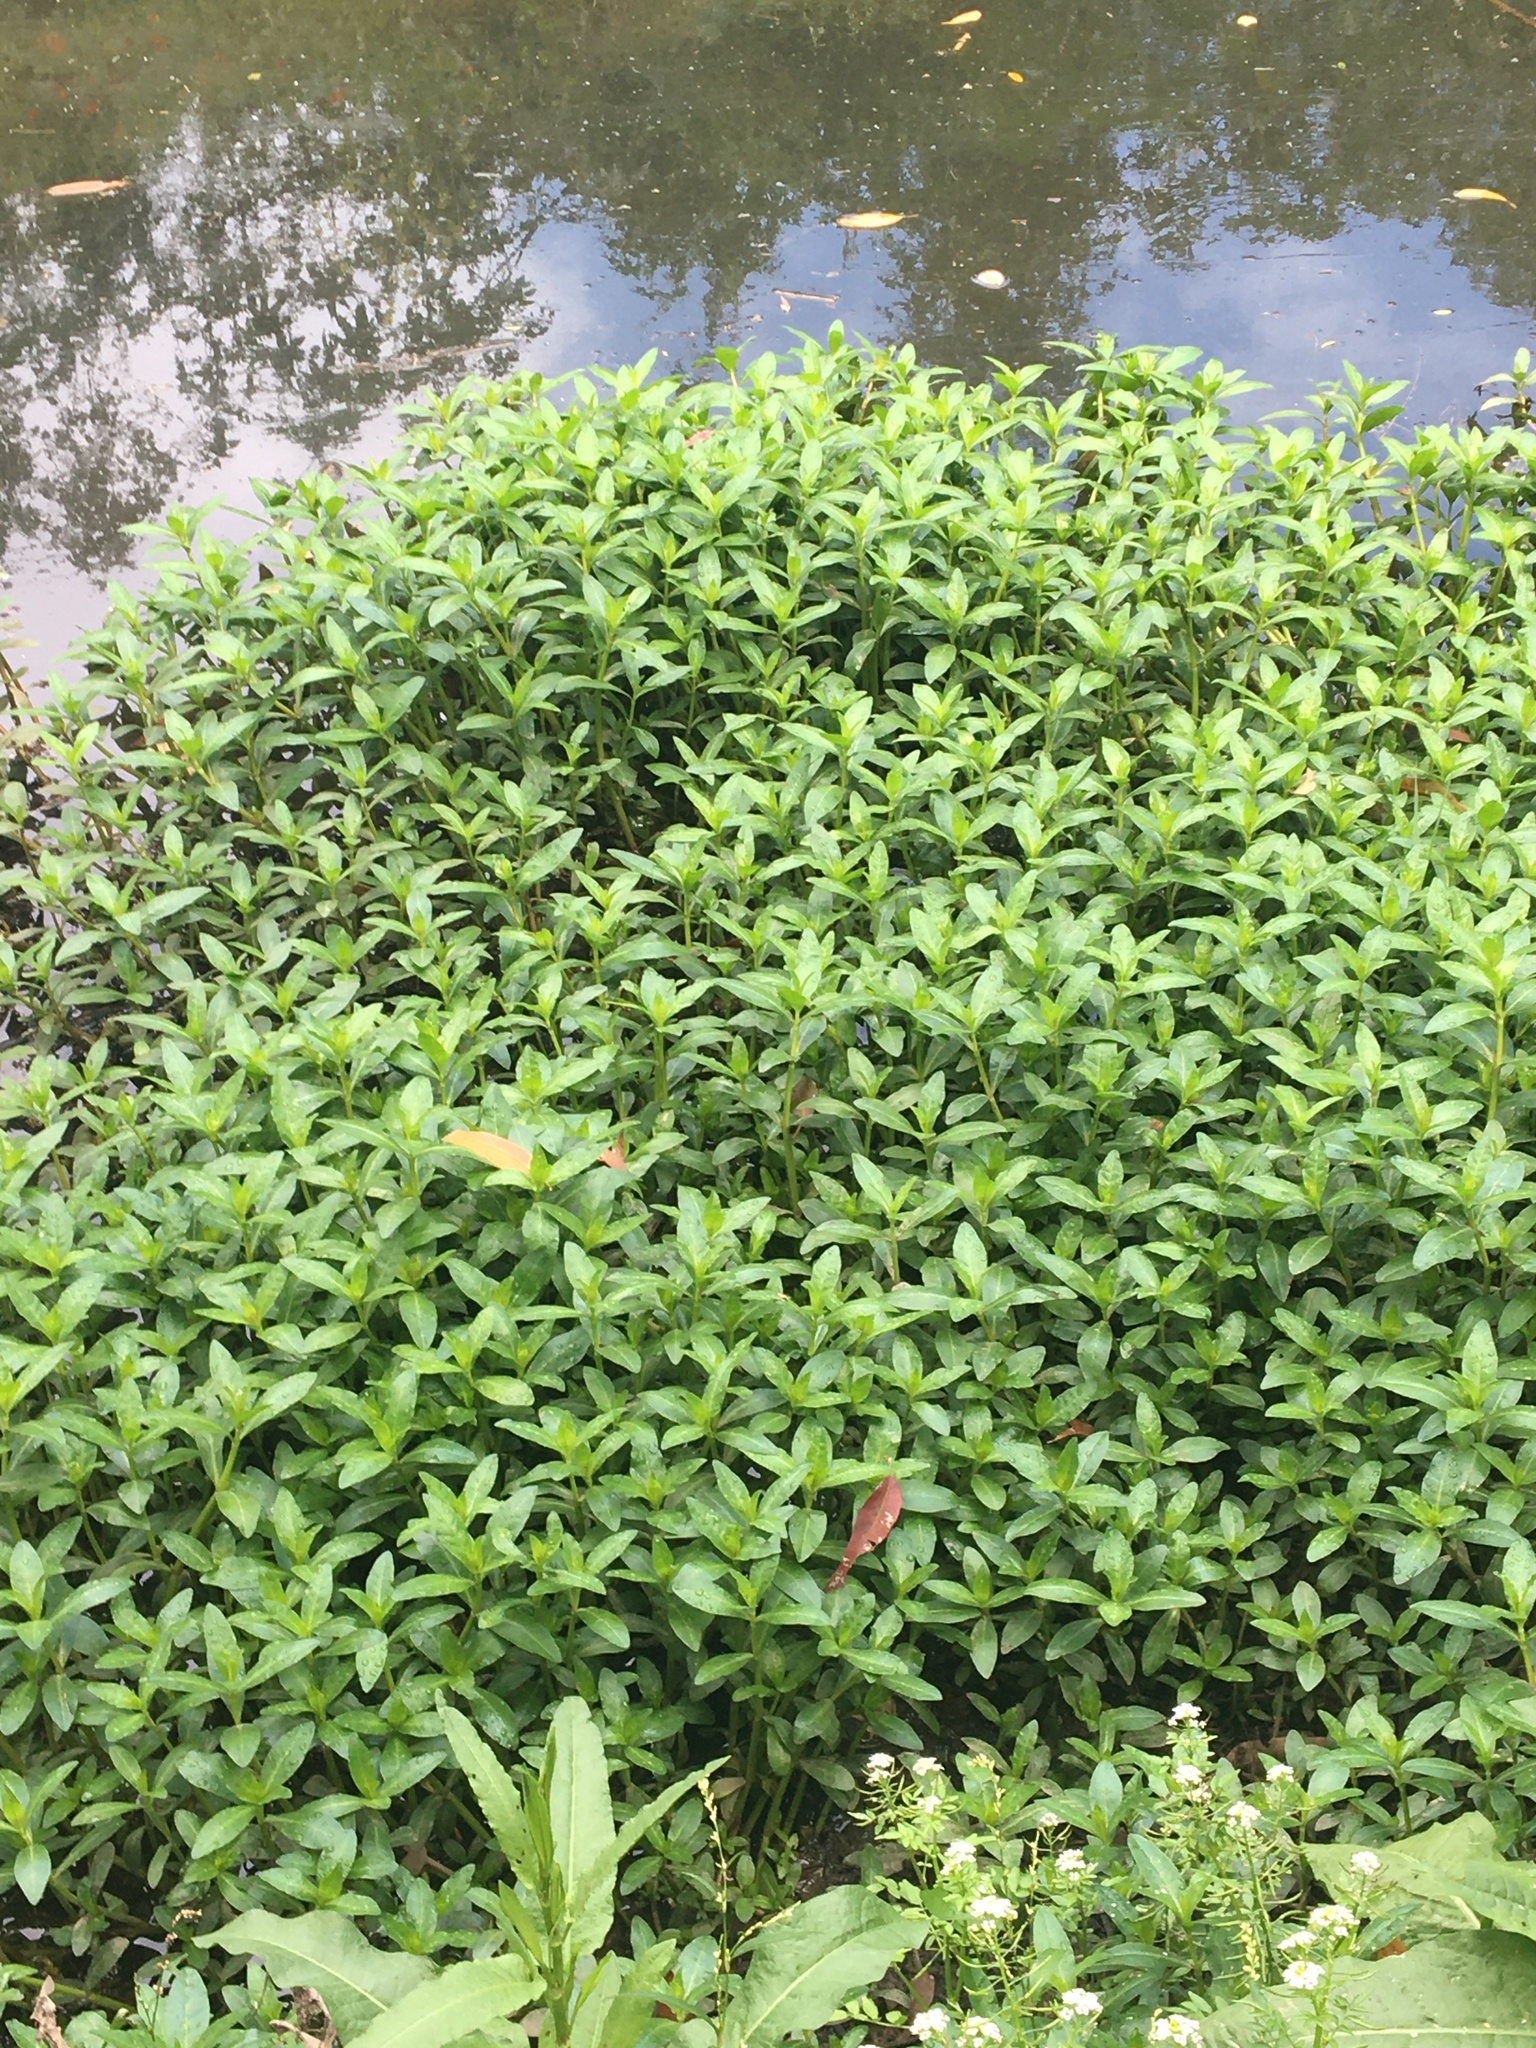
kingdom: Plantae
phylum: Tracheophyta
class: Magnoliopsida
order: Caryophyllales
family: Amaranthaceae
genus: Alternanthera
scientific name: Alternanthera philoxeroides
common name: Alligatorweed
